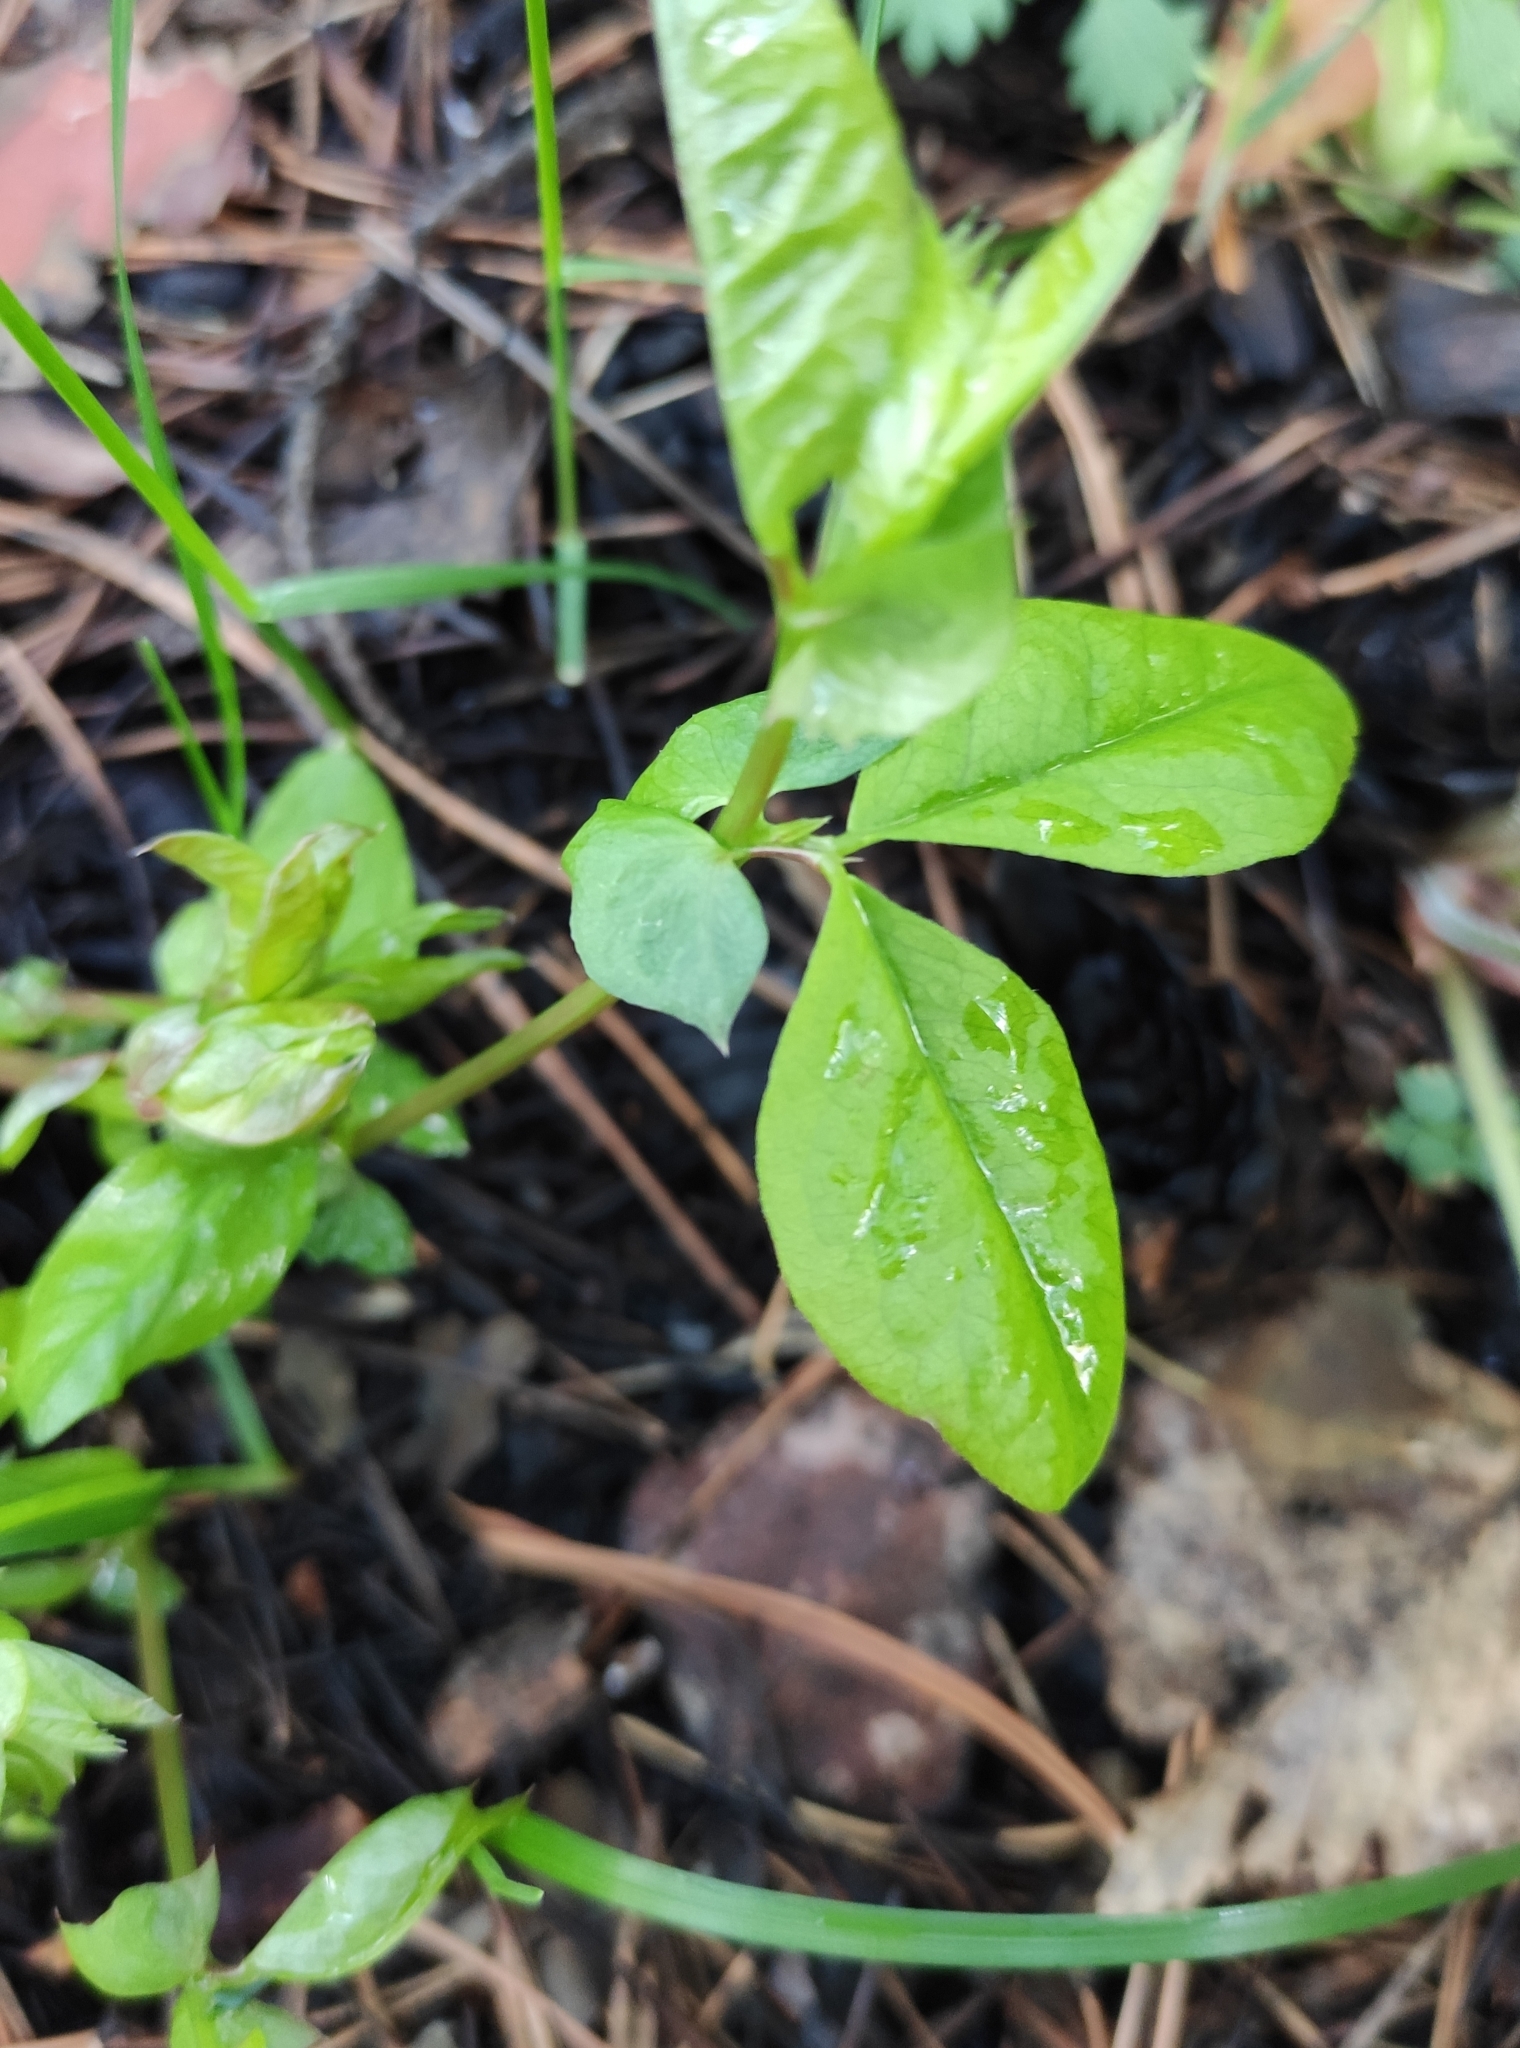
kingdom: Plantae
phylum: Tracheophyta
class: Magnoliopsida
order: Fabales
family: Fabaceae
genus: Vicia
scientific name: Vicia unijuga
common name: Two-leaf vetch
